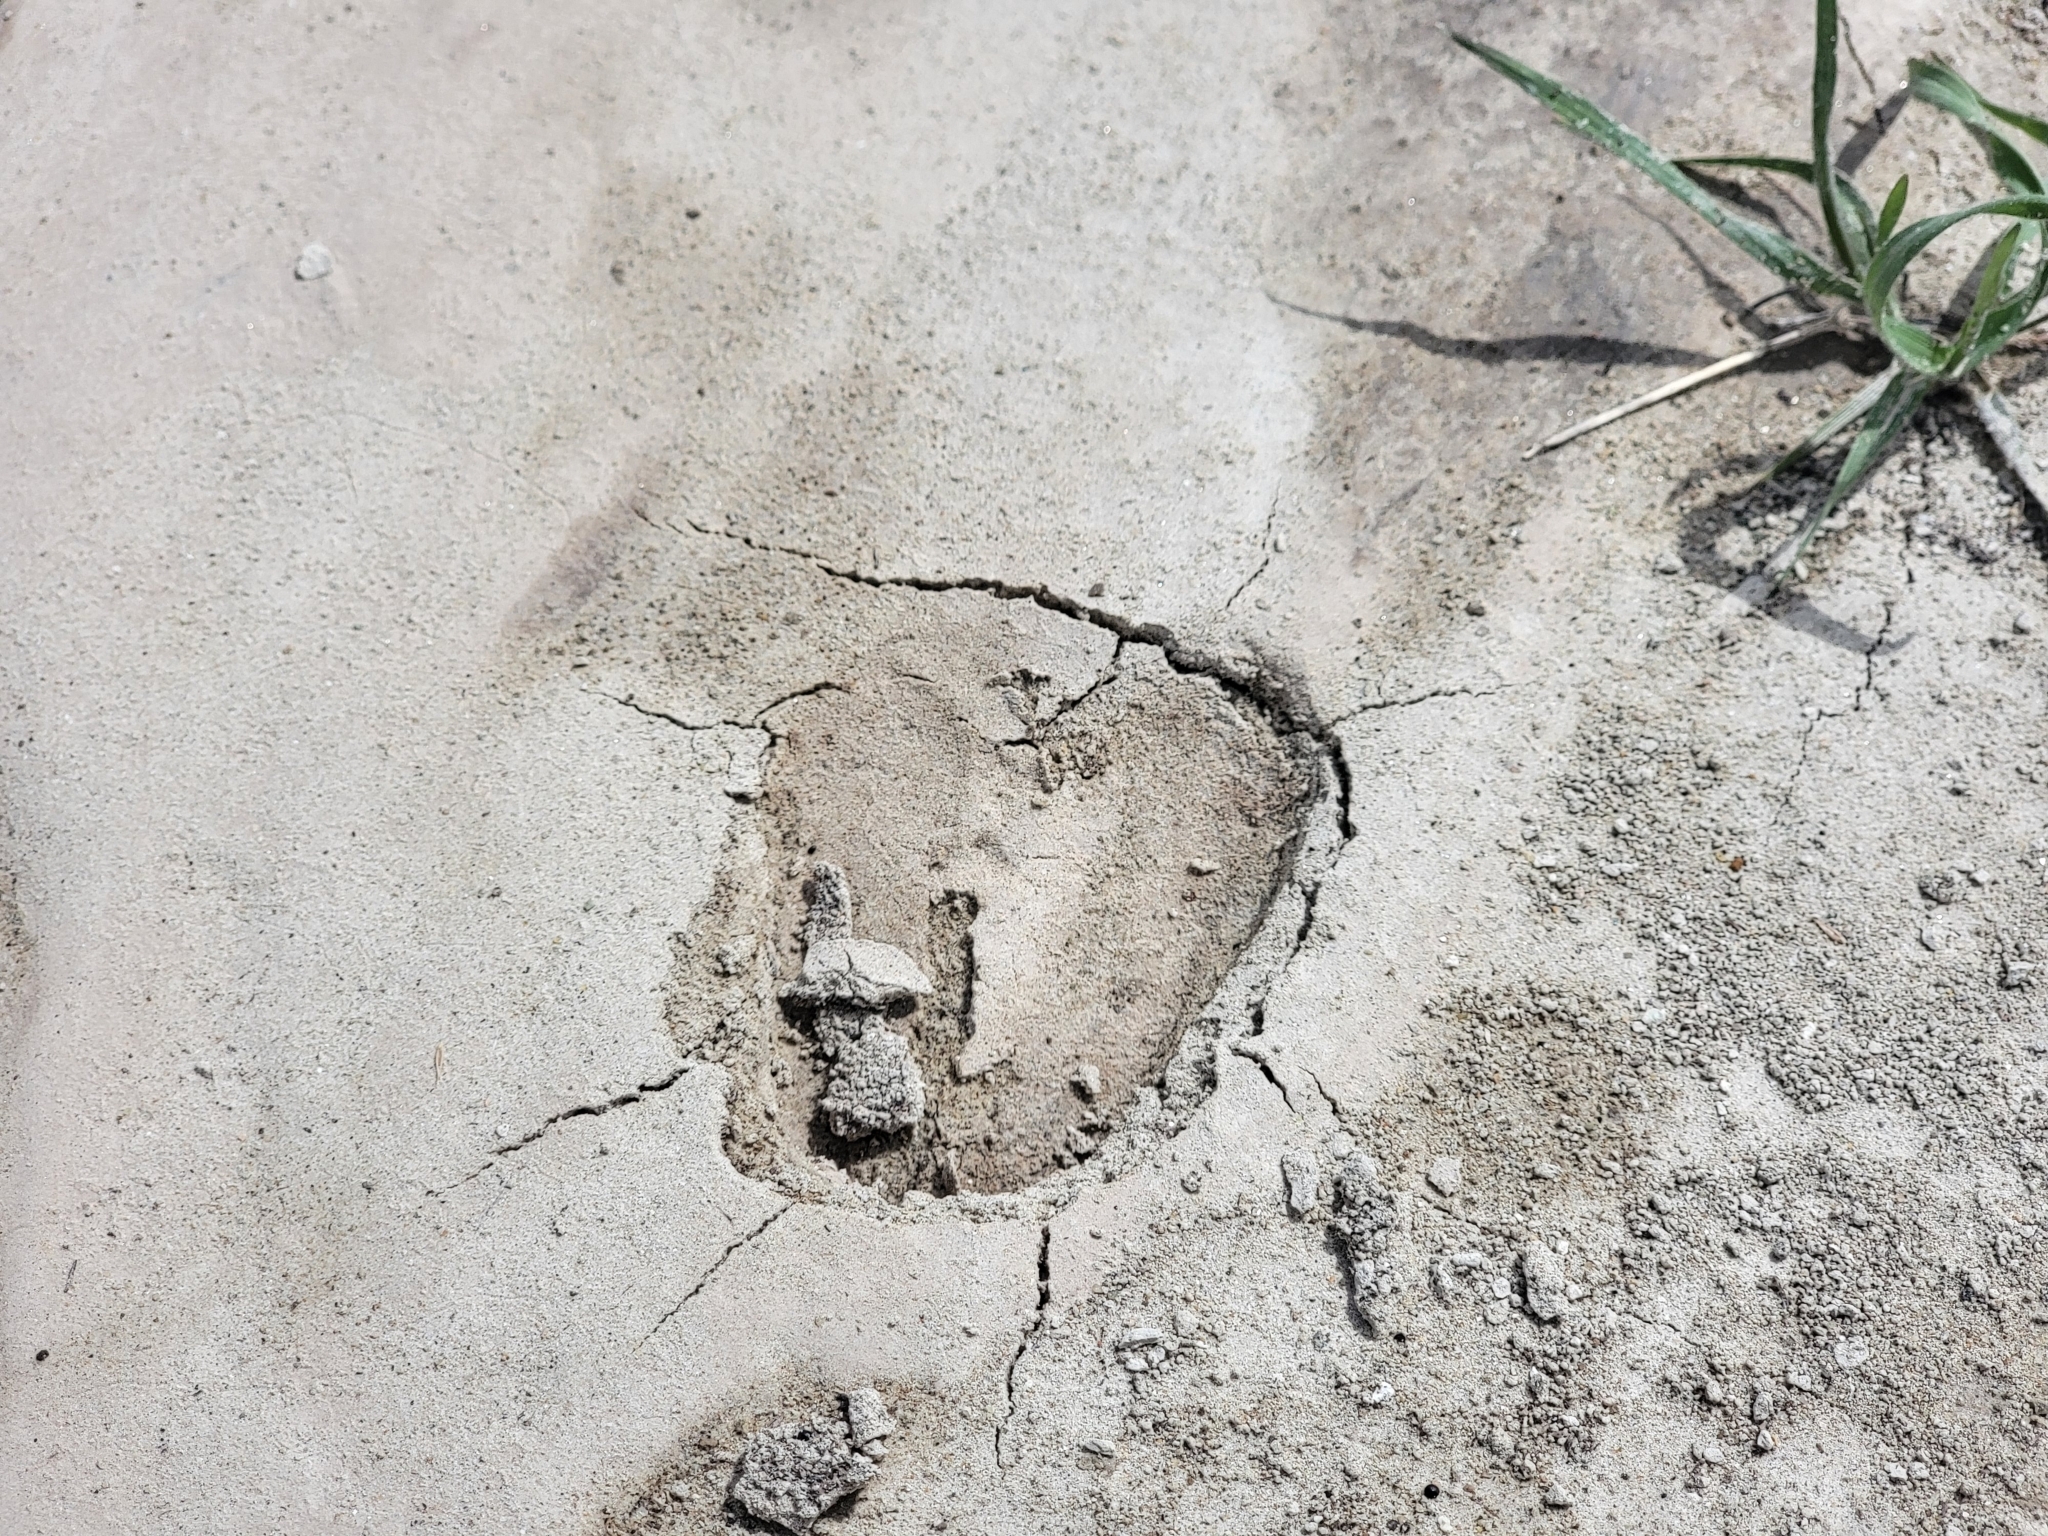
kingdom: Animalia
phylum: Chordata
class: Mammalia
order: Artiodactyla
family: Cervidae
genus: Odocoileus
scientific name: Odocoileus hemionus
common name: Mule deer
